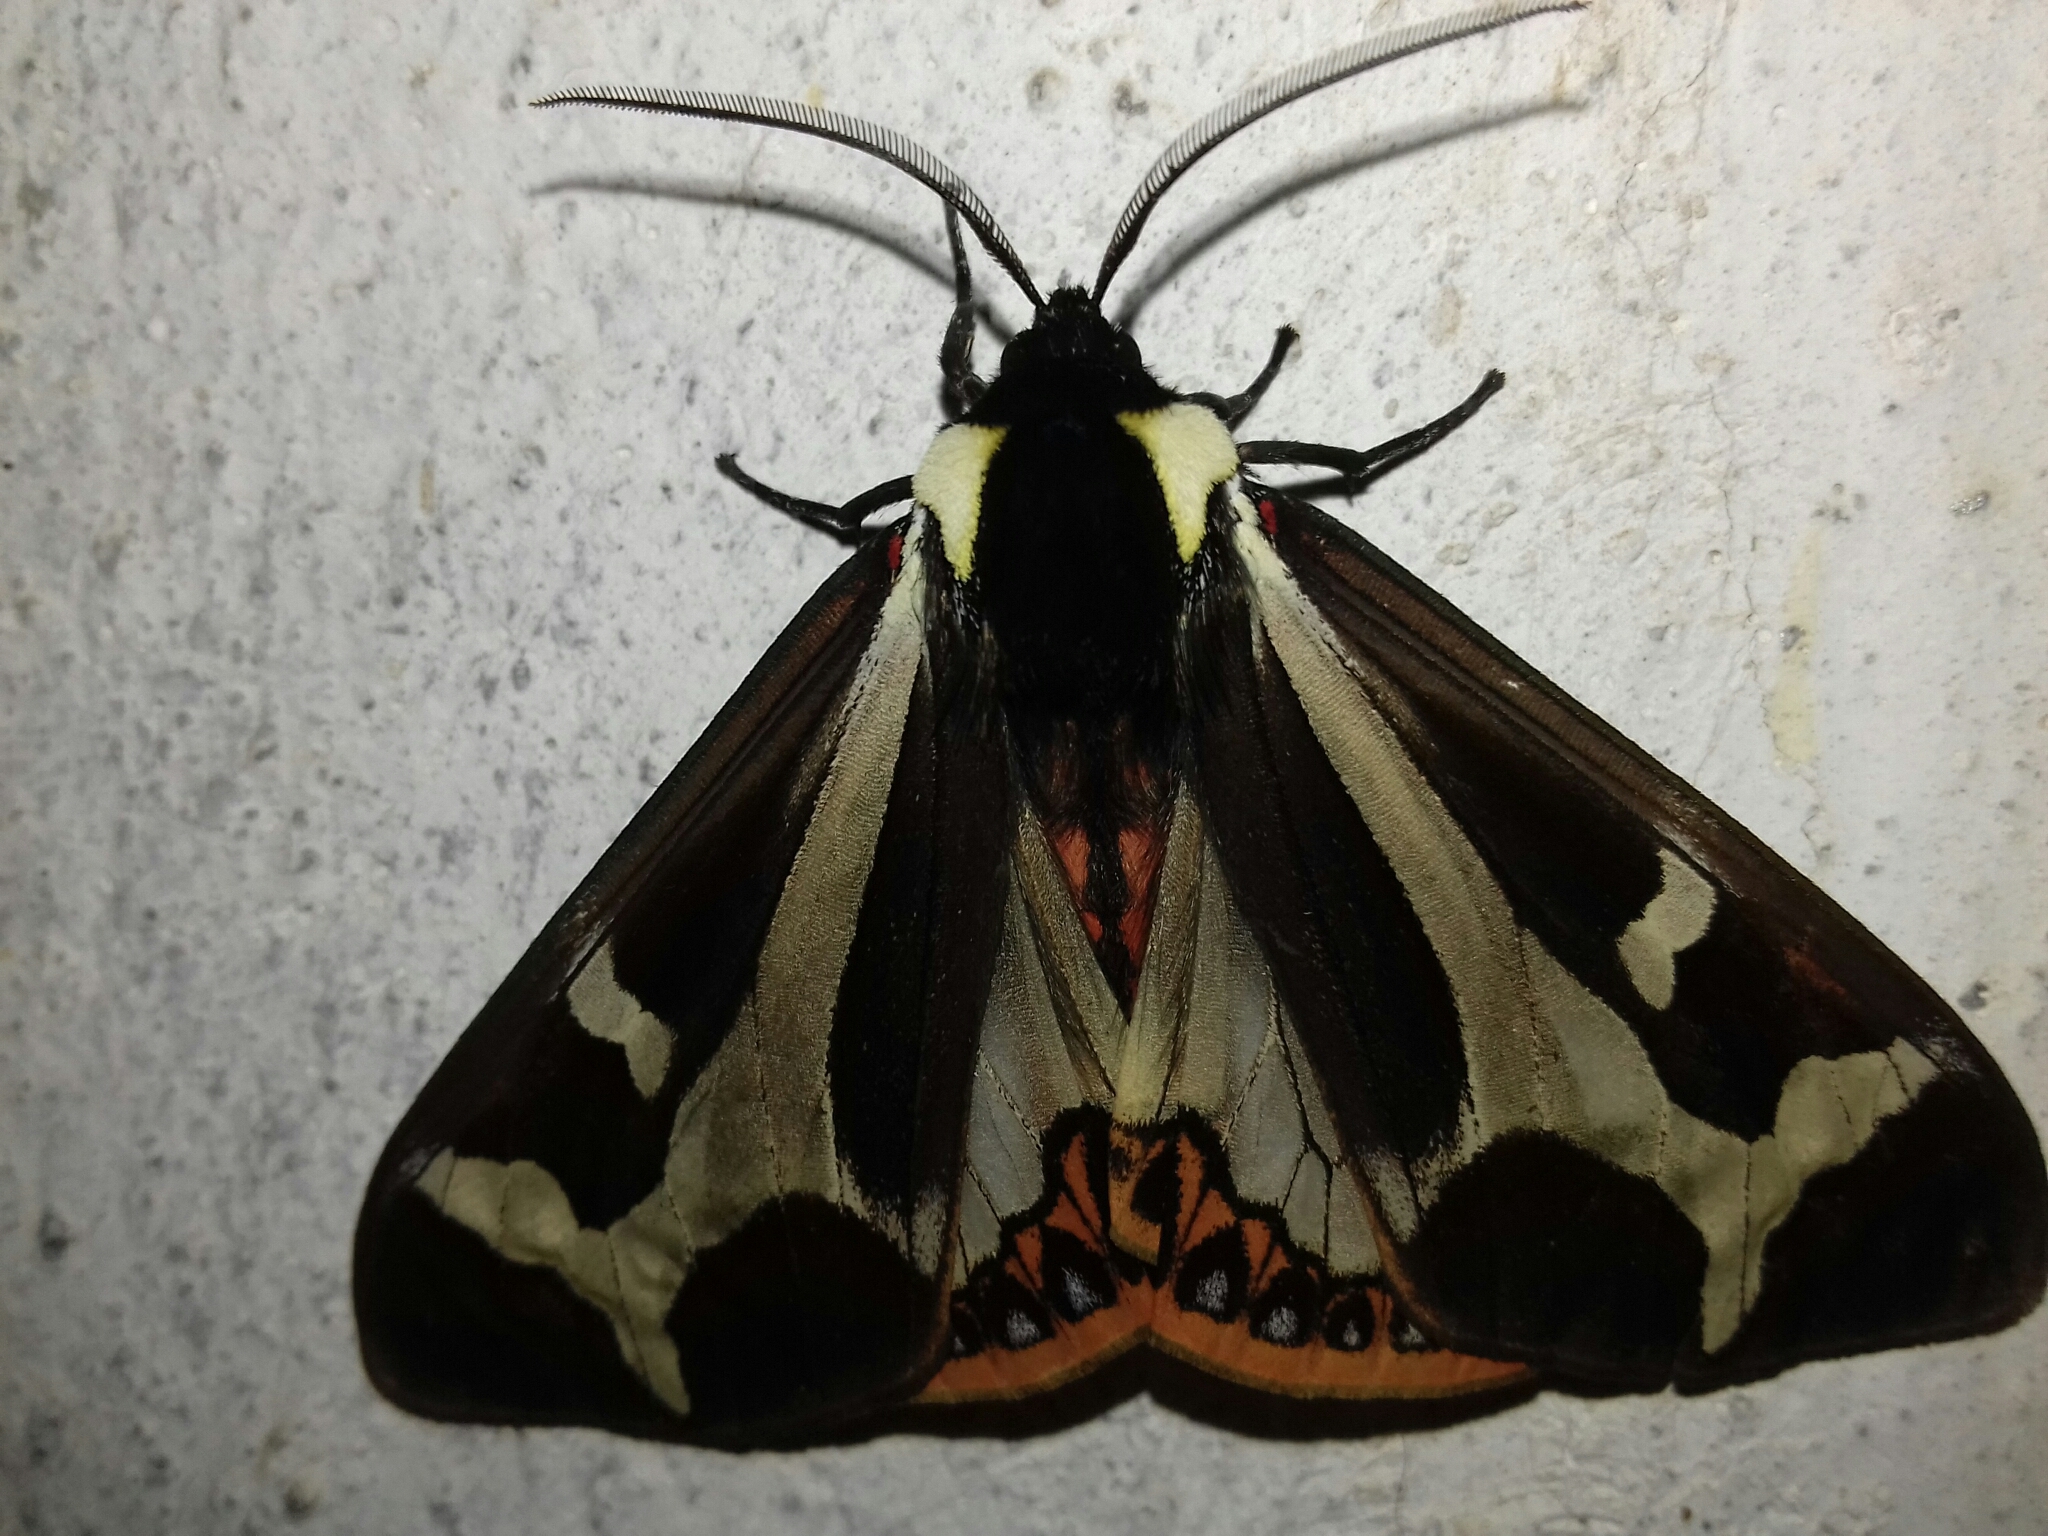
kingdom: Animalia
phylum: Arthropoda
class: Insecta
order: Lepidoptera
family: Erebidae
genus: Dysschema
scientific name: Dysschema howardi
